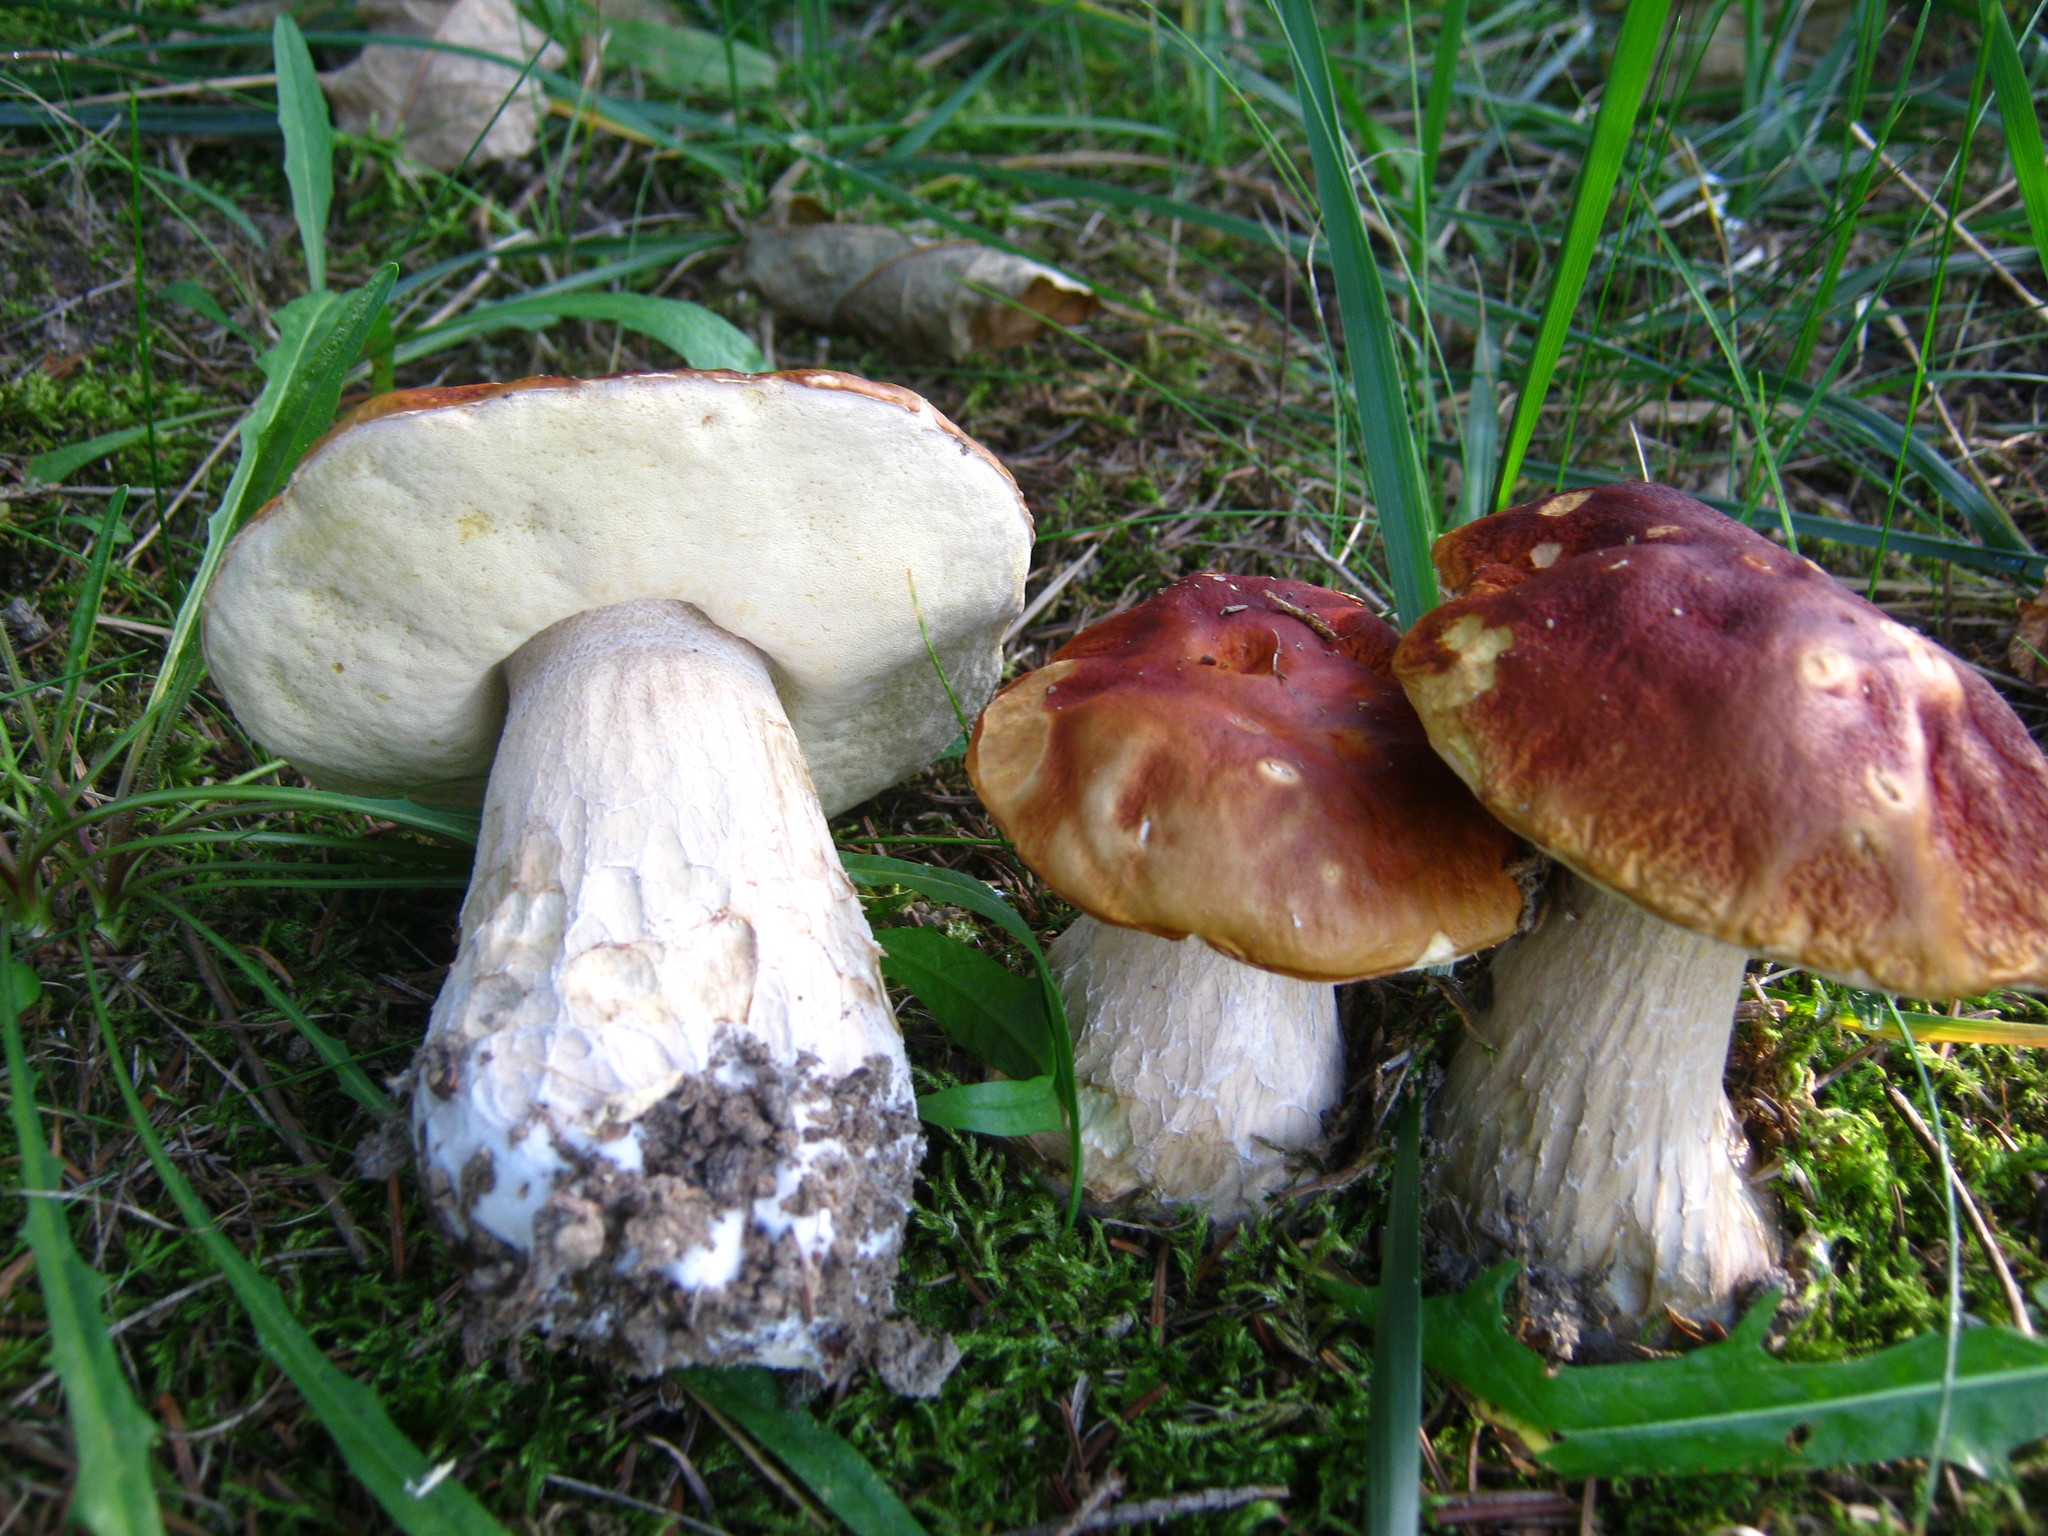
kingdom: Fungi
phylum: Basidiomycota
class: Agaricomycetes
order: Boletales
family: Boletaceae
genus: Boletus
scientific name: Boletus chippewaensis
